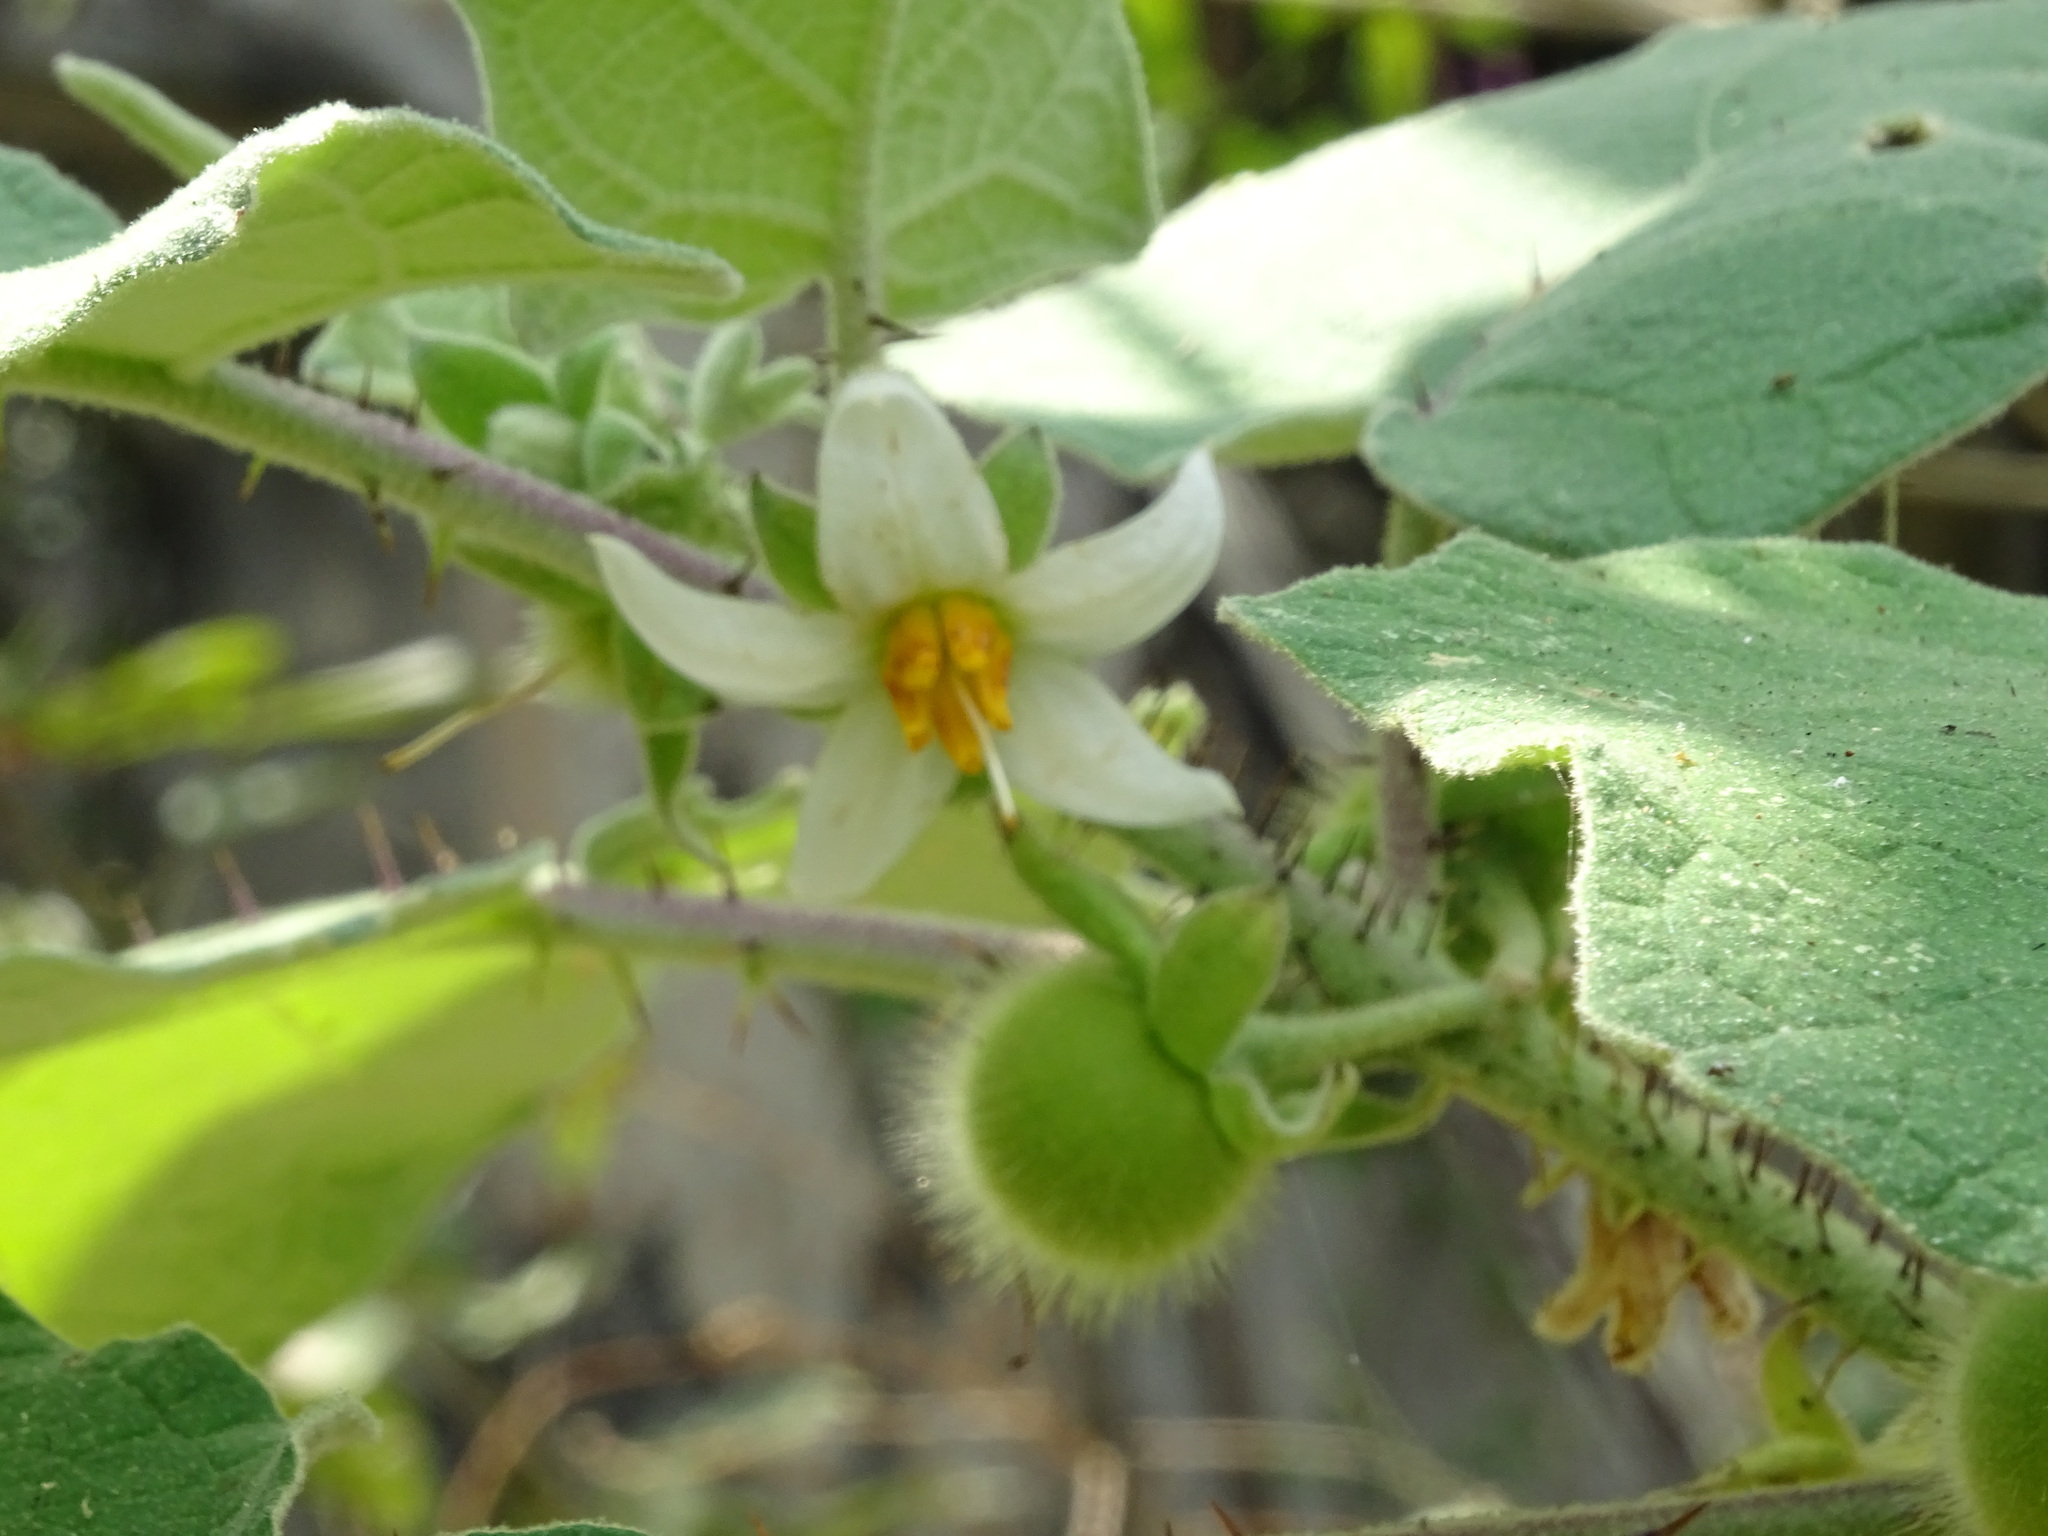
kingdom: Plantae
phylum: Tracheophyta
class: Magnoliopsida
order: Solanales
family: Solanaceae
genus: Solanum
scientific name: Solanum hirtum
